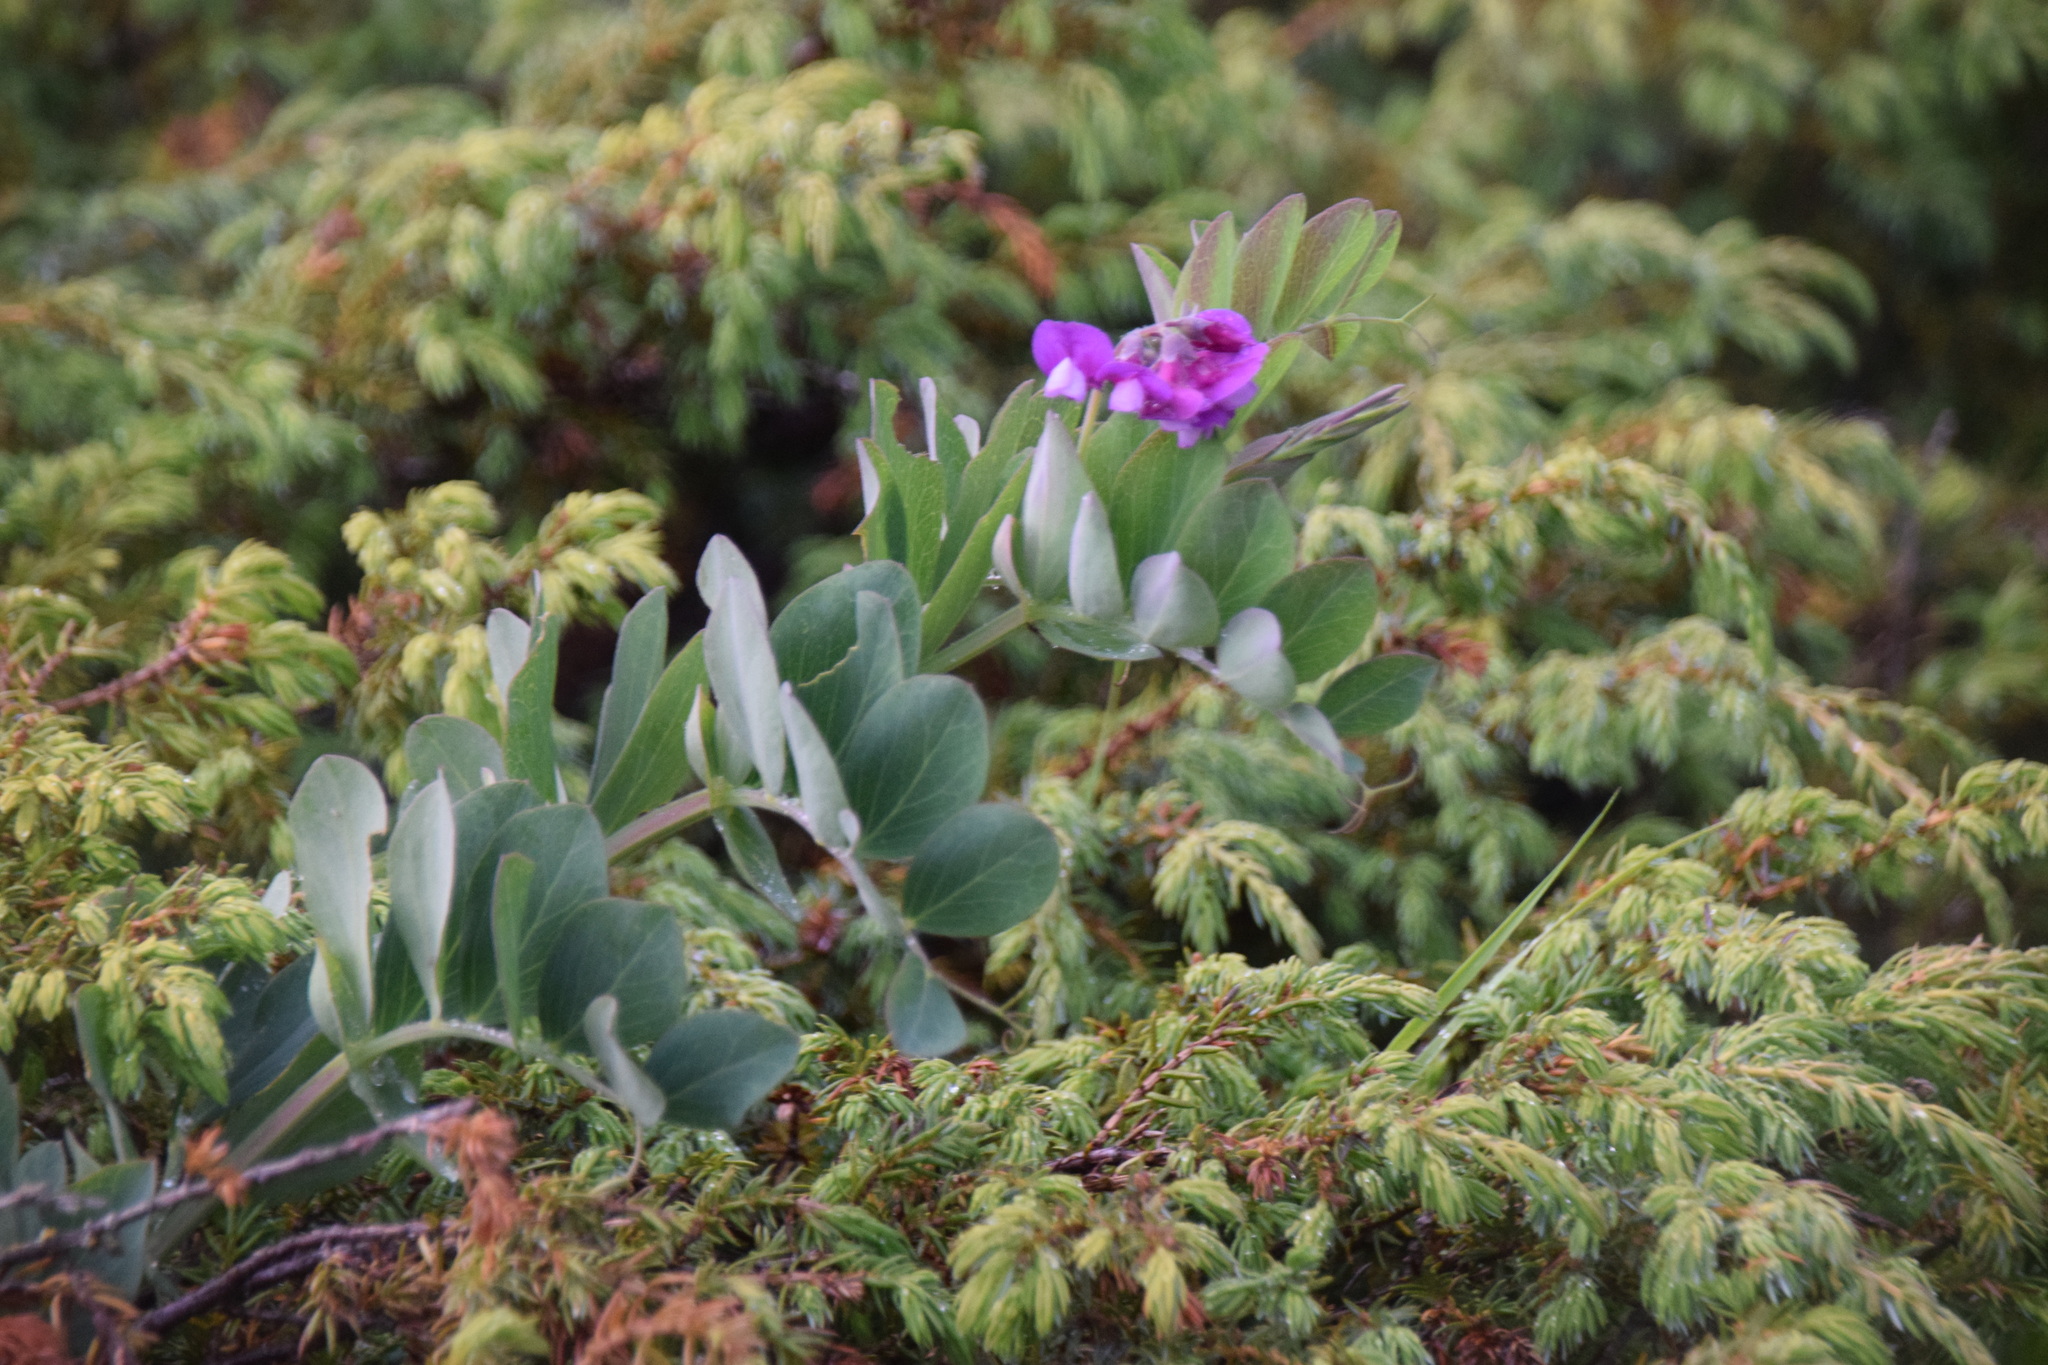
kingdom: Plantae
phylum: Tracheophyta
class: Magnoliopsida
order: Fabales
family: Fabaceae
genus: Lathyrus
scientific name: Lathyrus japonicus
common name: Sea pea
